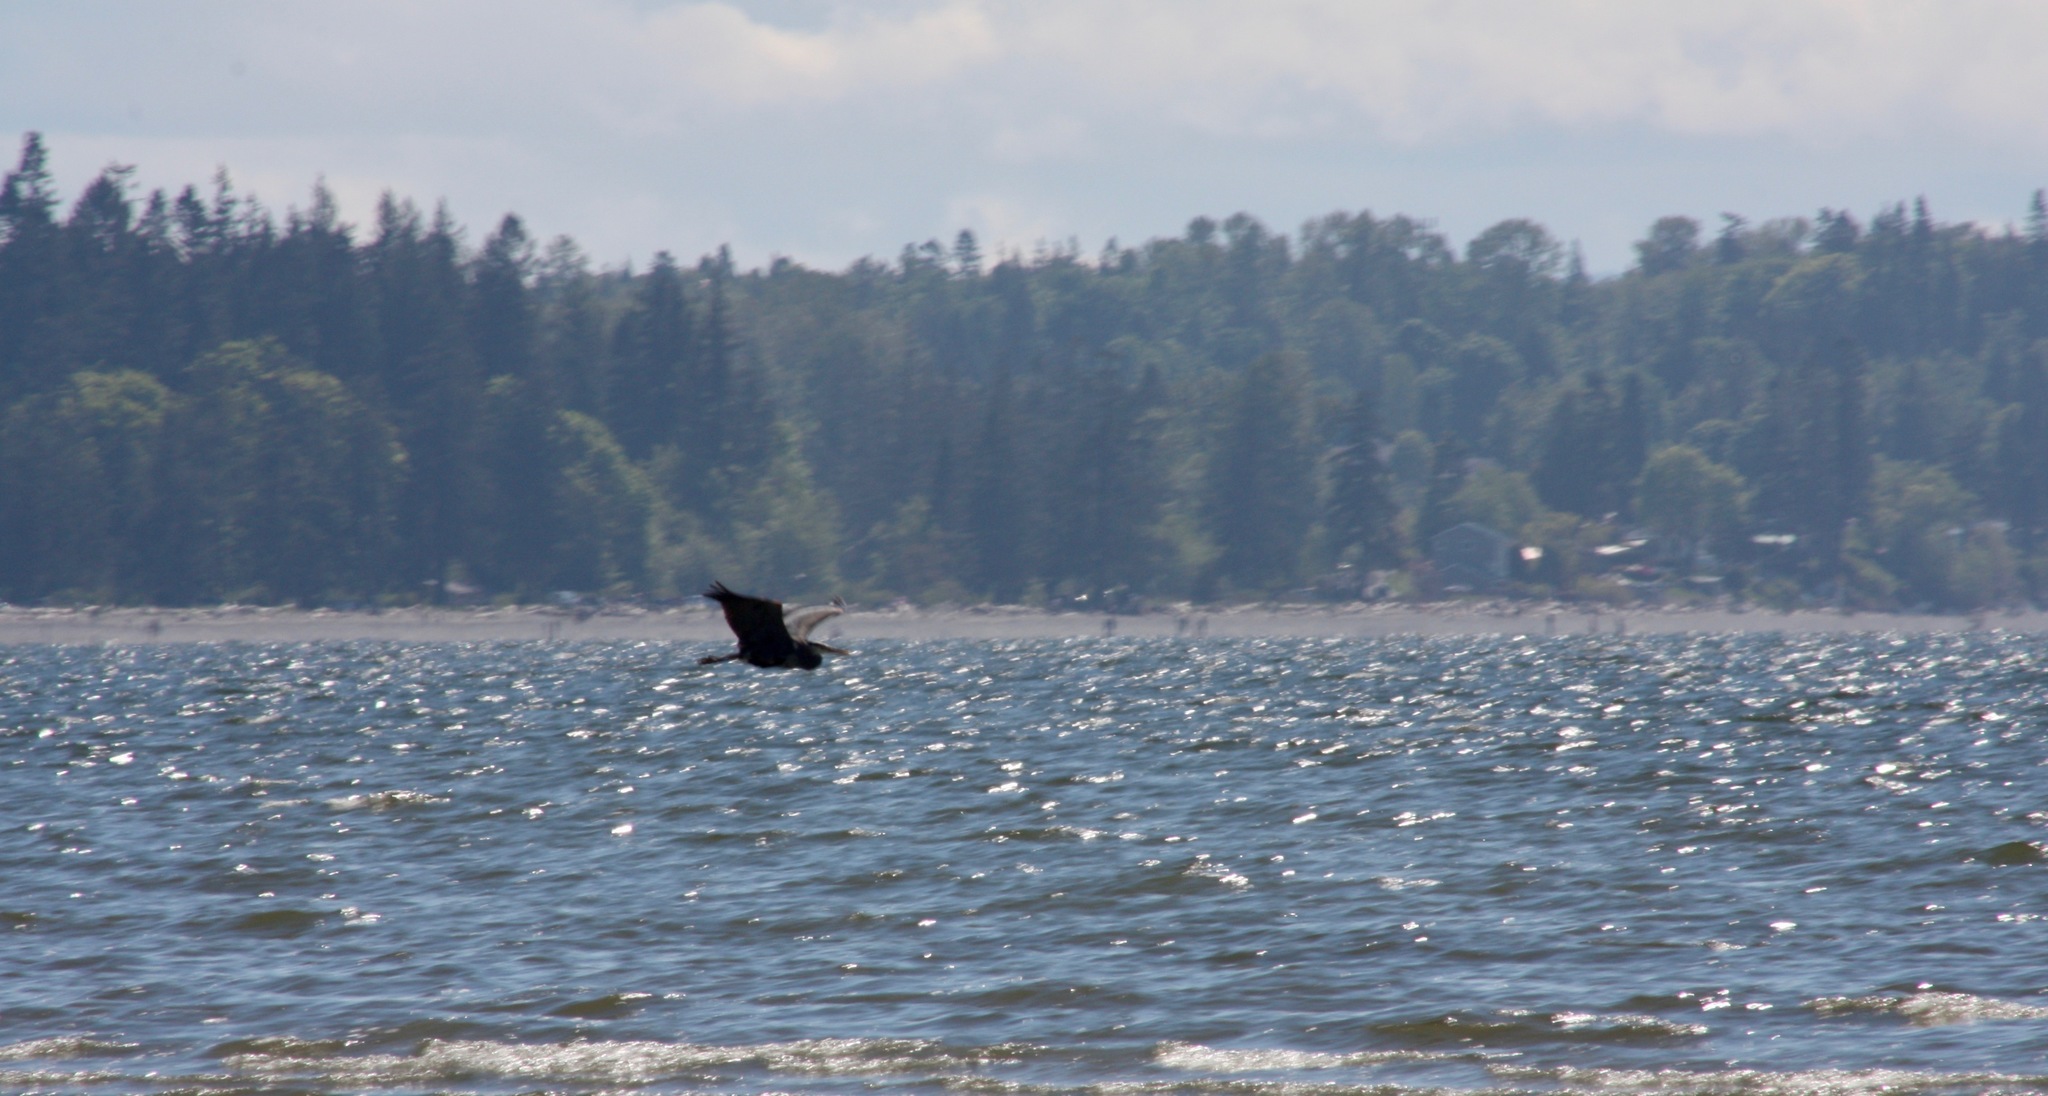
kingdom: Animalia
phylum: Chordata
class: Aves
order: Pelecaniformes
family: Ardeidae
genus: Ardea
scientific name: Ardea herodias
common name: Great blue heron
